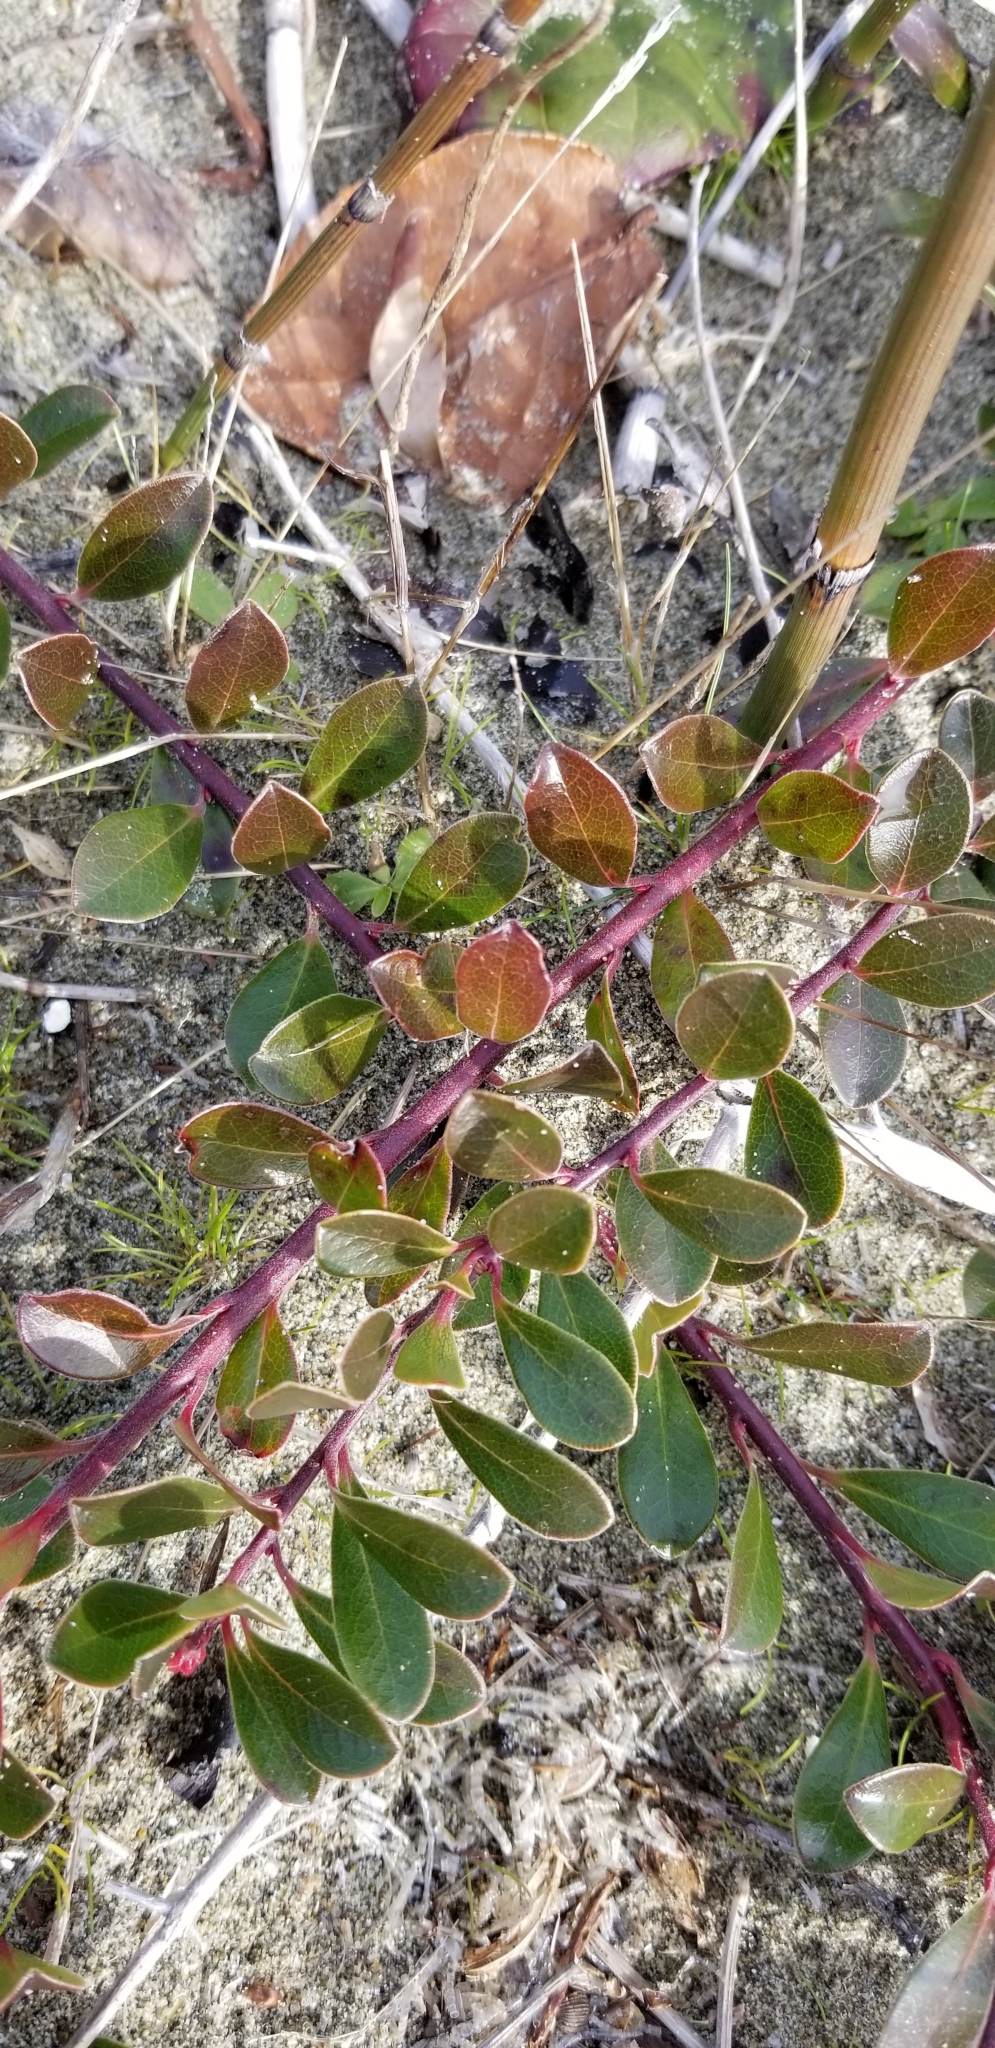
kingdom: Plantae
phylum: Tracheophyta
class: Magnoliopsida
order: Ericales
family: Ericaceae
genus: Arctostaphylos
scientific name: Arctostaphylos uva-ursi
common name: Bearberry
